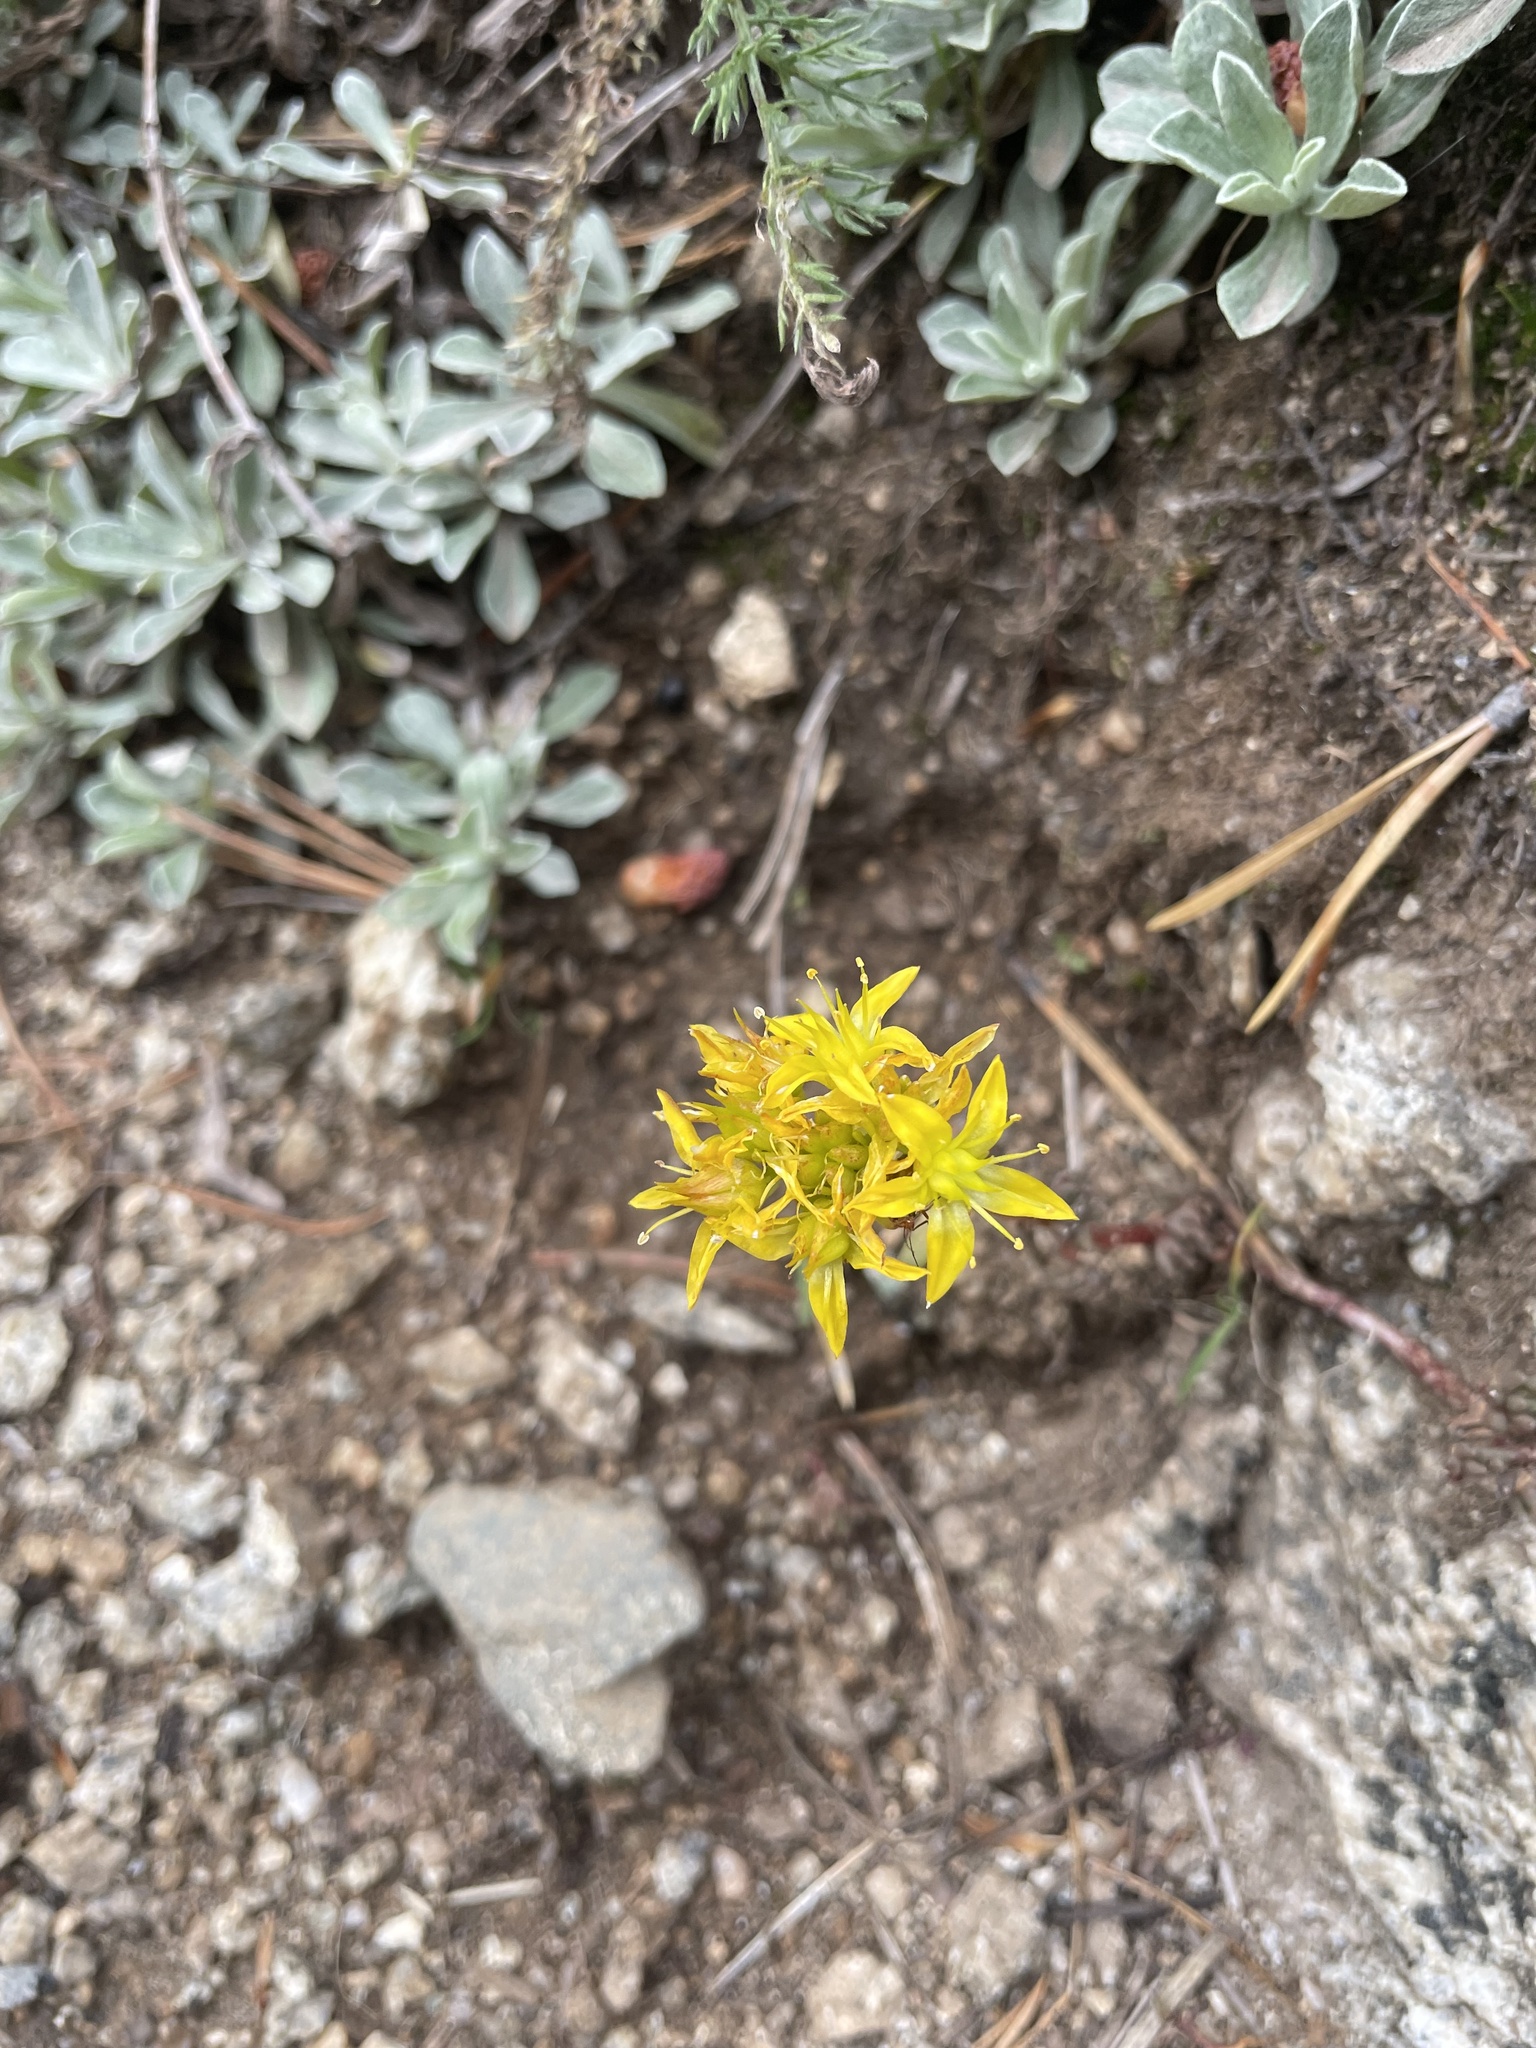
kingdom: Plantae
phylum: Tracheophyta
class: Magnoliopsida
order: Saxifragales
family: Crassulaceae
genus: Sedum
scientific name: Sedum lanceolatum
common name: Common stonecrop
